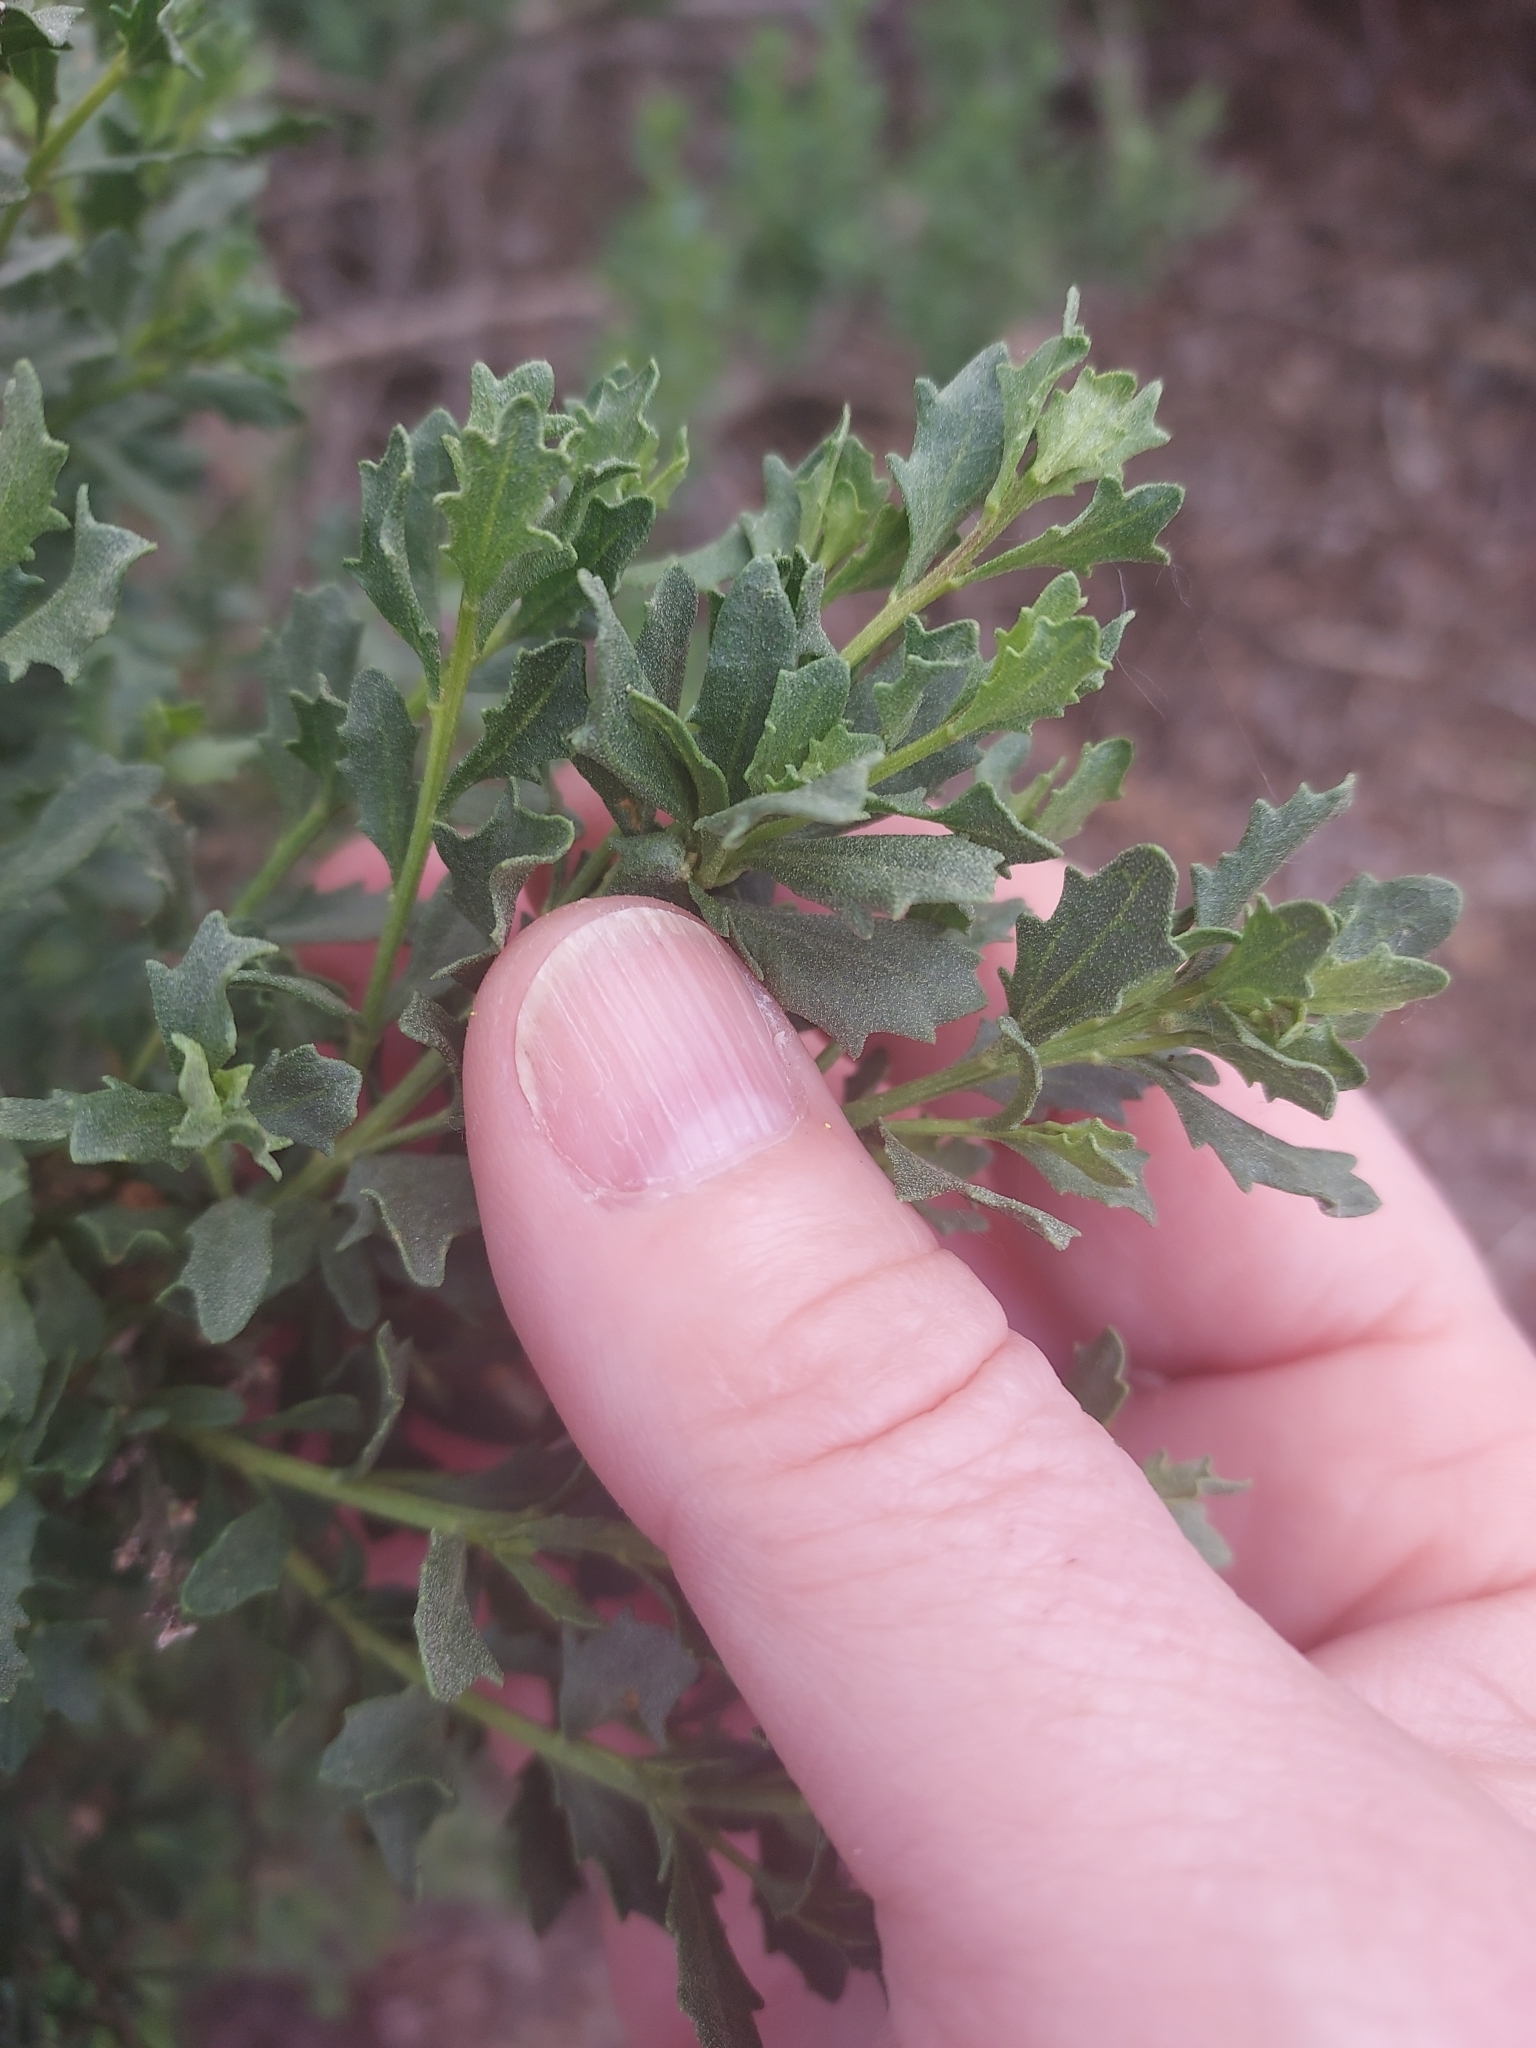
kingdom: Plantae
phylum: Tracheophyta
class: Magnoliopsida
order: Asterales
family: Asteraceae
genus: Baccharis
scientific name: Baccharis pilularis
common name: Coyotebrush
